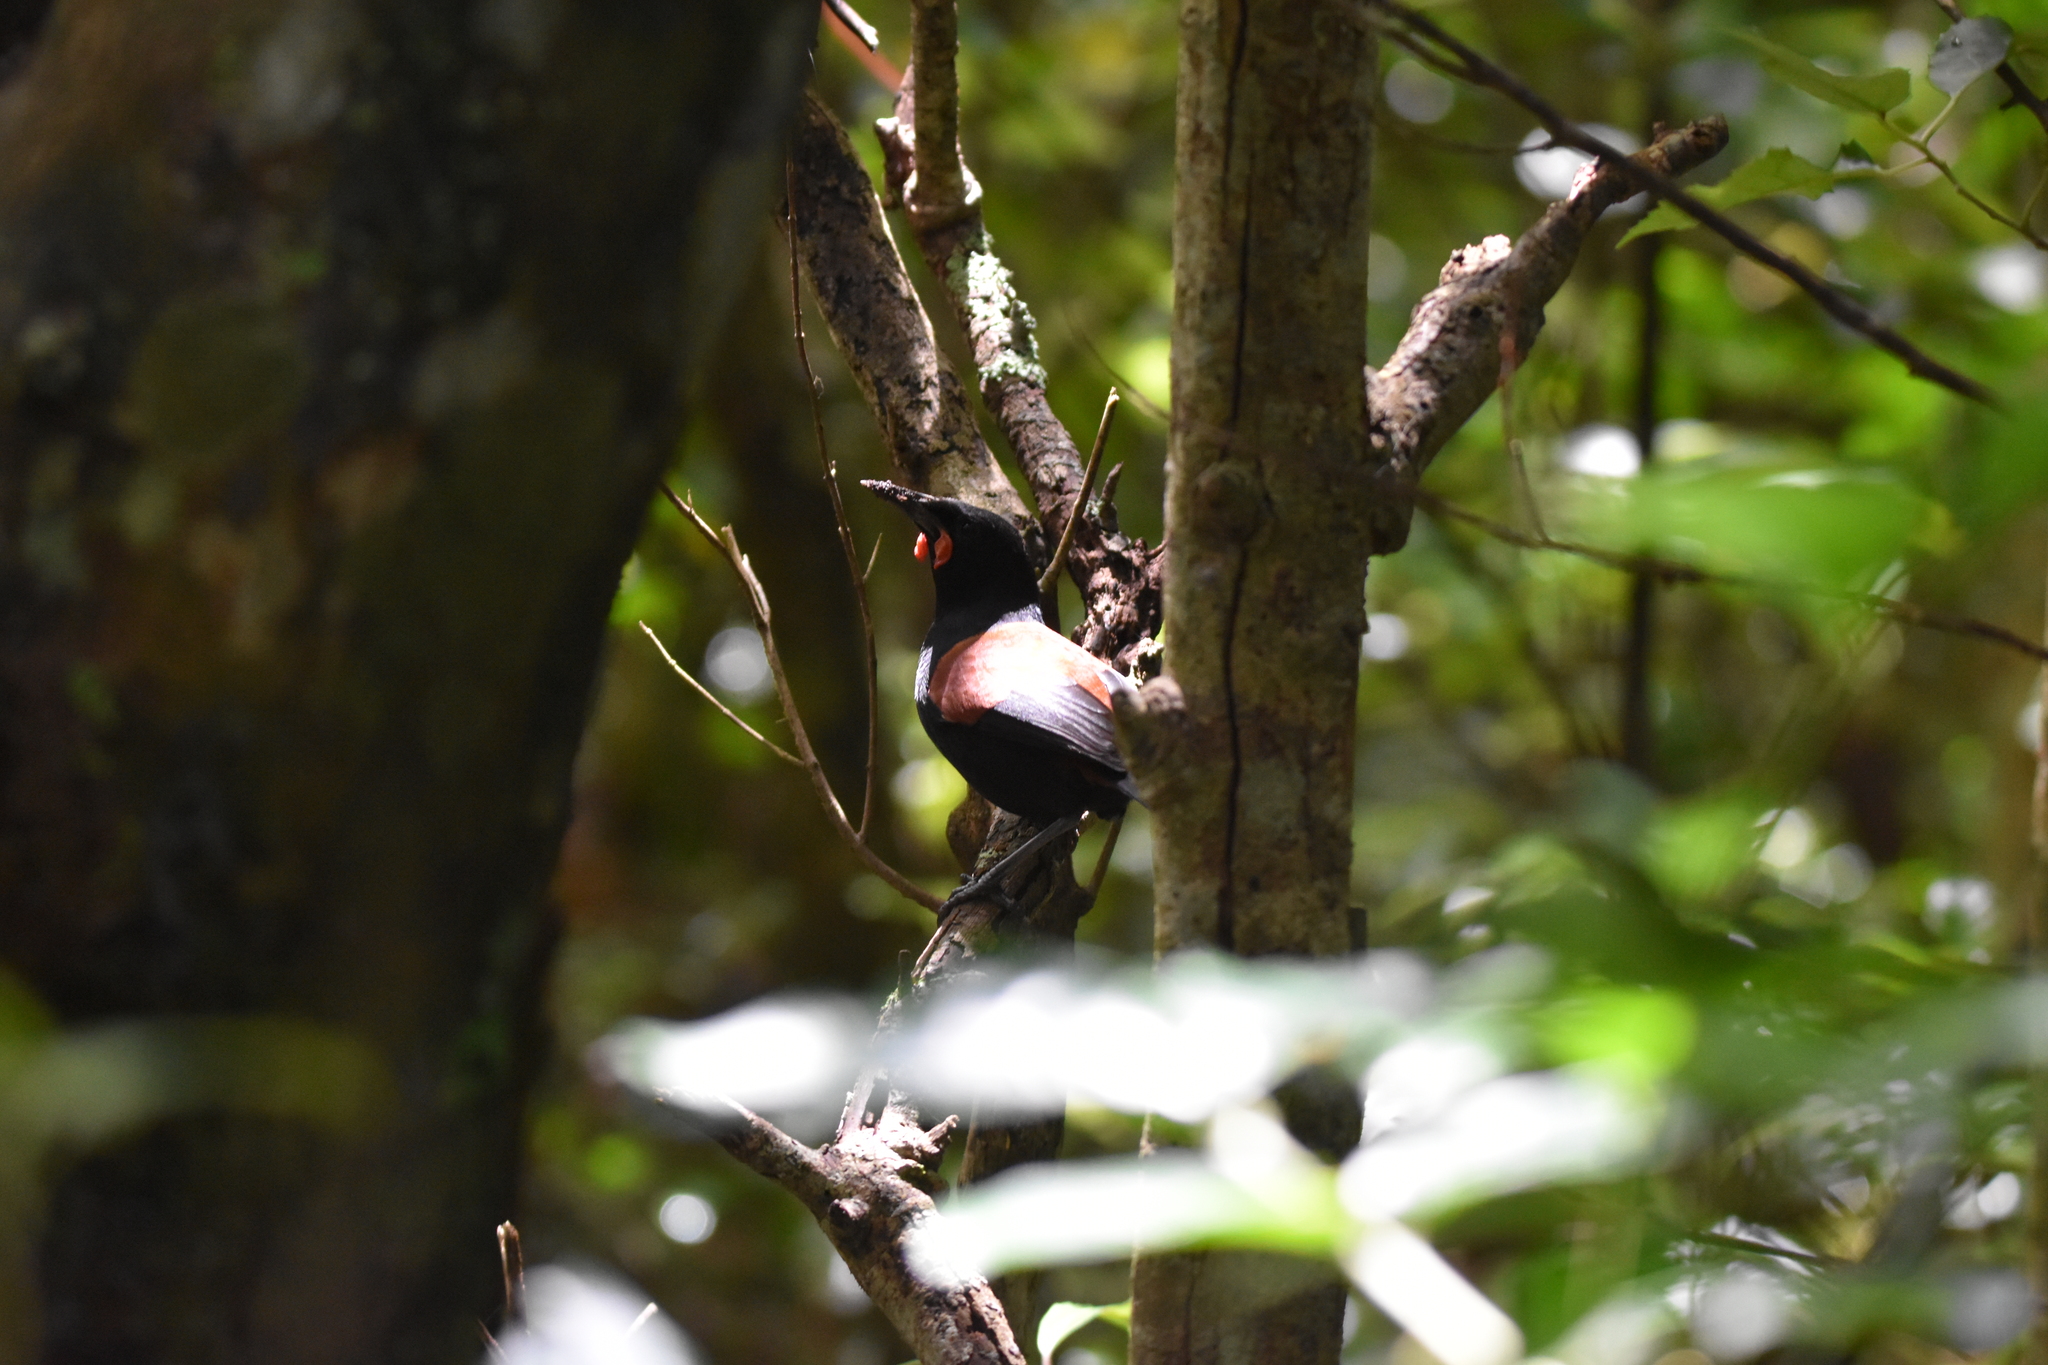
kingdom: Animalia
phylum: Chordata
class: Aves
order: Passeriformes
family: Callaeatidae
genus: Philesturnus
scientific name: Philesturnus carunculatus
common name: South island saddleback
